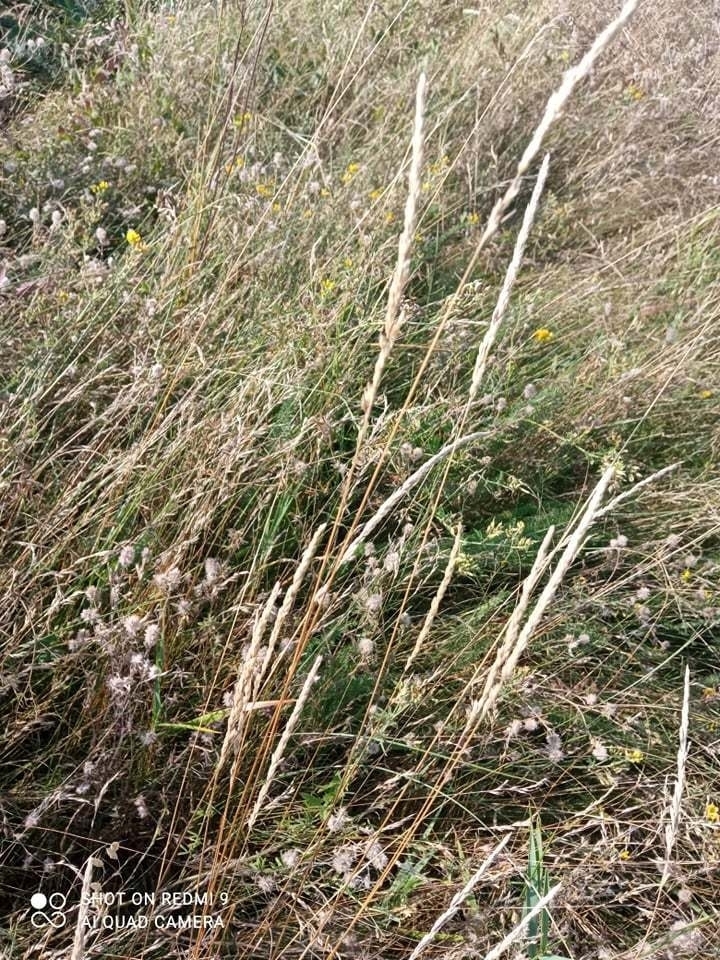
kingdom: Plantae
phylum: Tracheophyta
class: Magnoliopsida
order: Fabales
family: Fabaceae
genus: Trifolium
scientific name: Trifolium arvense
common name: Hare's-foot clover
